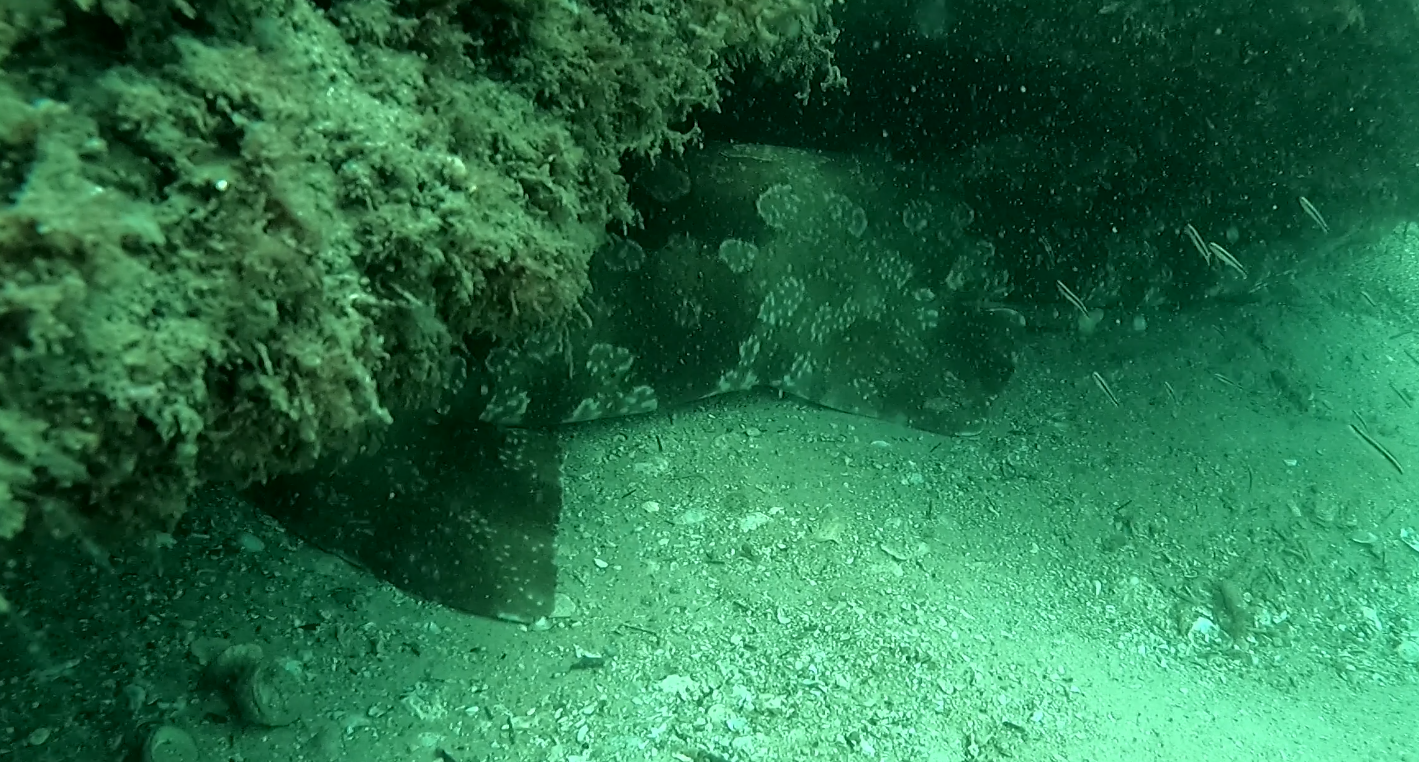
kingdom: Animalia
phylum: Chordata
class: Elasmobranchii
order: Orectolobiformes
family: Orectolobidae
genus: Orectolobus
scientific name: Orectolobus maculatus
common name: Spotted wobbegong
